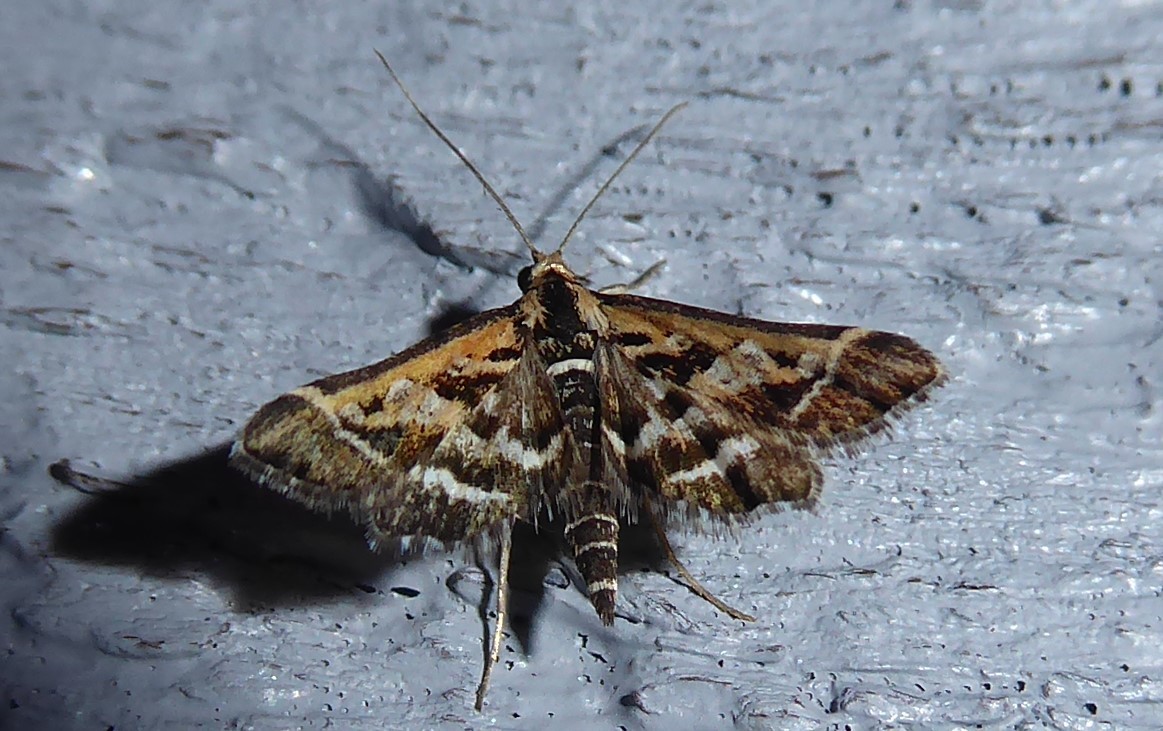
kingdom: Animalia
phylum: Arthropoda
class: Insecta
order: Lepidoptera
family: Crambidae
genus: Diasemia
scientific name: Diasemia grammalis
